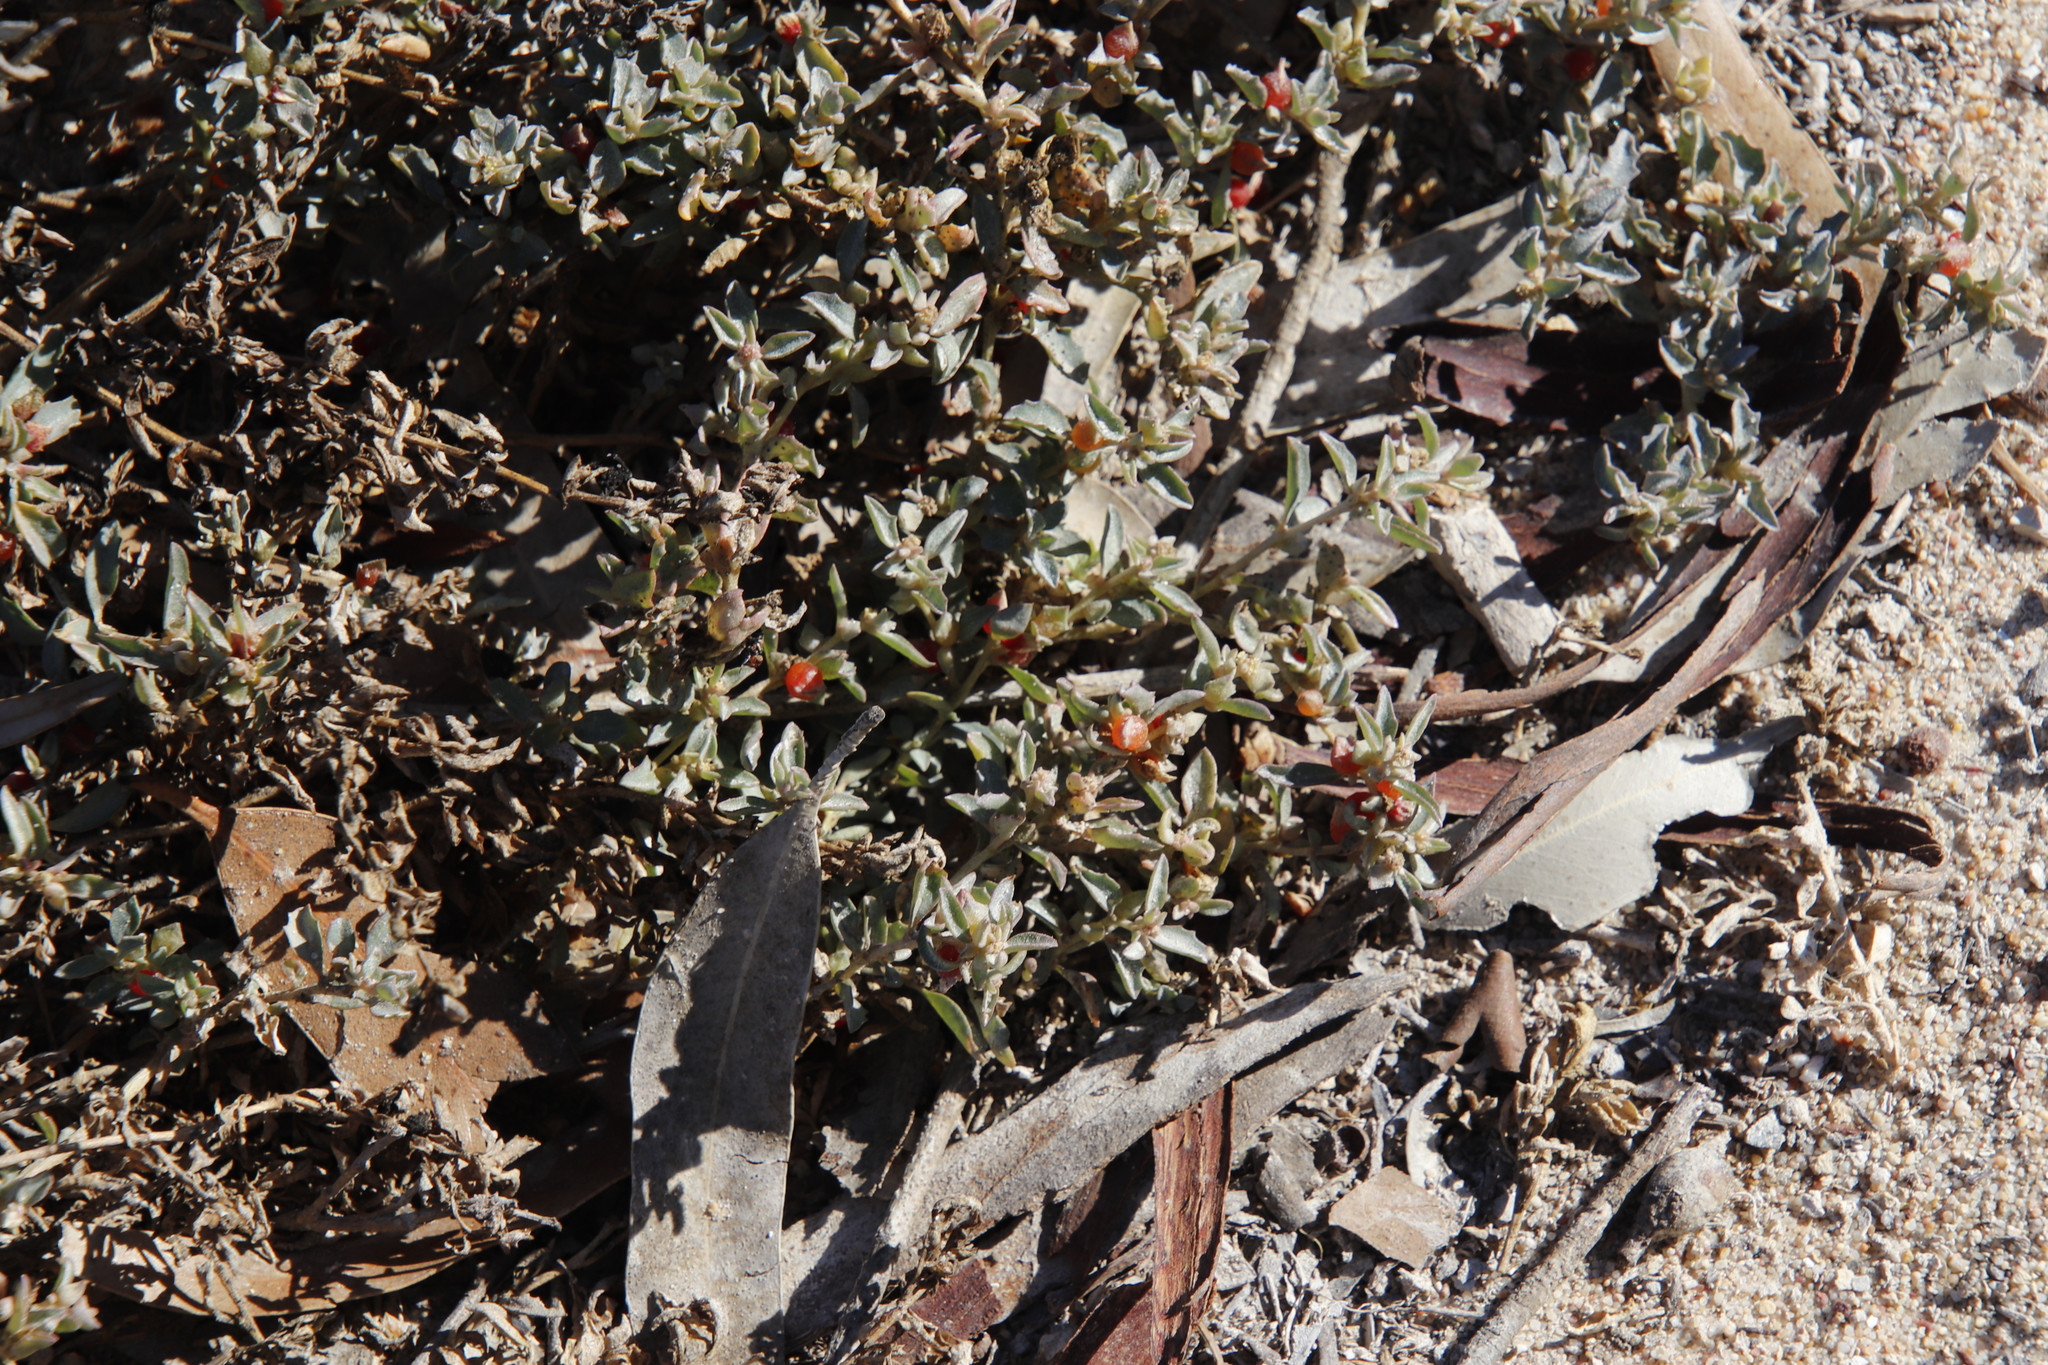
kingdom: Plantae
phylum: Tracheophyta
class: Magnoliopsida
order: Caryophyllales
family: Amaranthaceae
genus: Atriplex
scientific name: Atriplex semibaccata
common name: Australian saltbush
